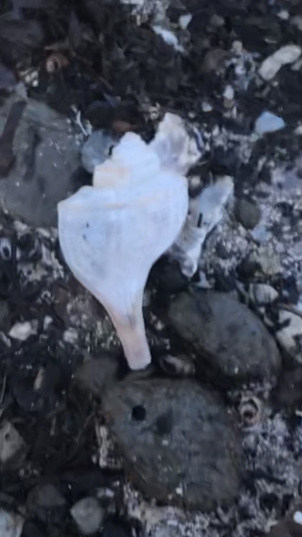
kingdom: Animalia
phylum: Mollusca
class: Gastropoda
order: Neogastropoda
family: Busyconidae
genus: Busycotypus
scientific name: Busycotypus canaliculatus
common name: Channeled whelk
